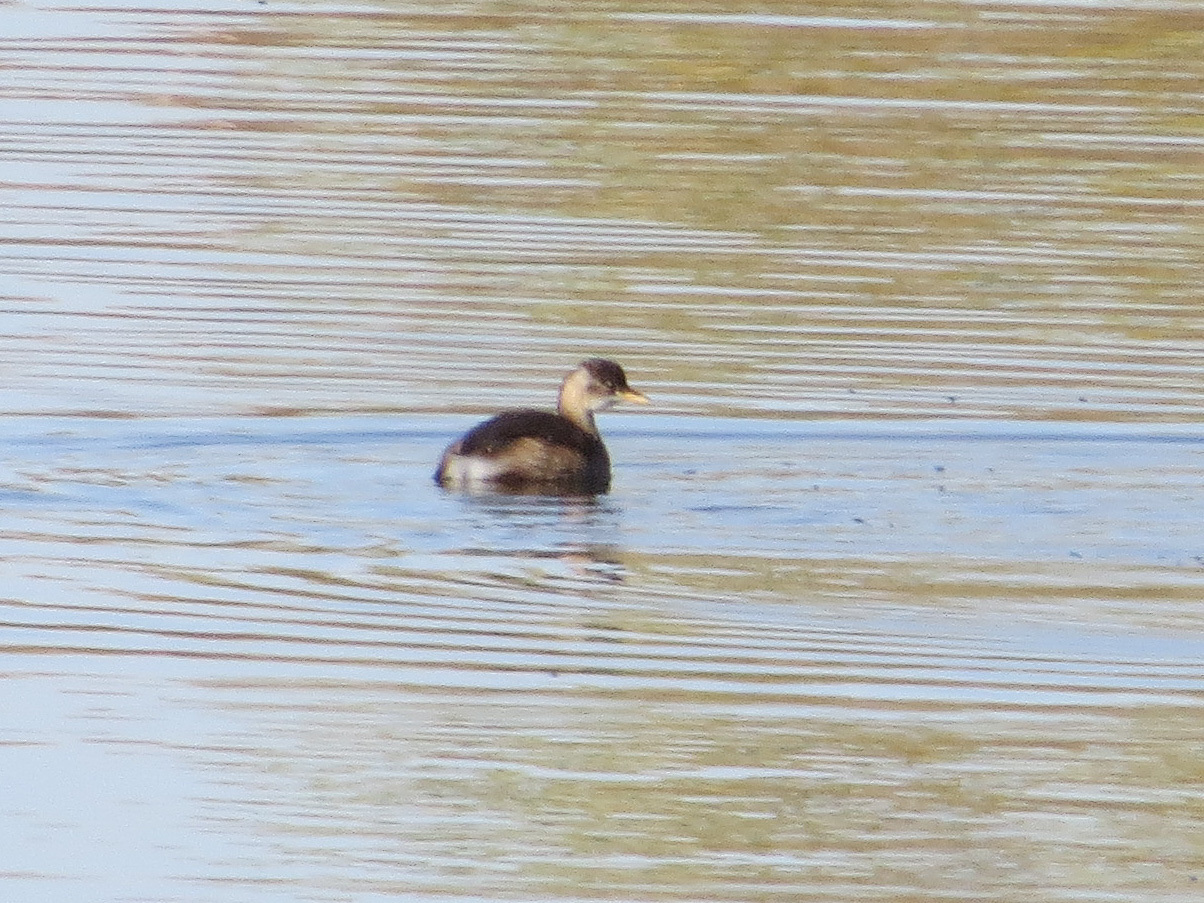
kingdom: Animalia
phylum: Chordata
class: Aves
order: Podicipediformes
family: Podicipedidae
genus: Tachybaptus
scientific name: Tachybaptus ruficollis
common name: Little grebe
